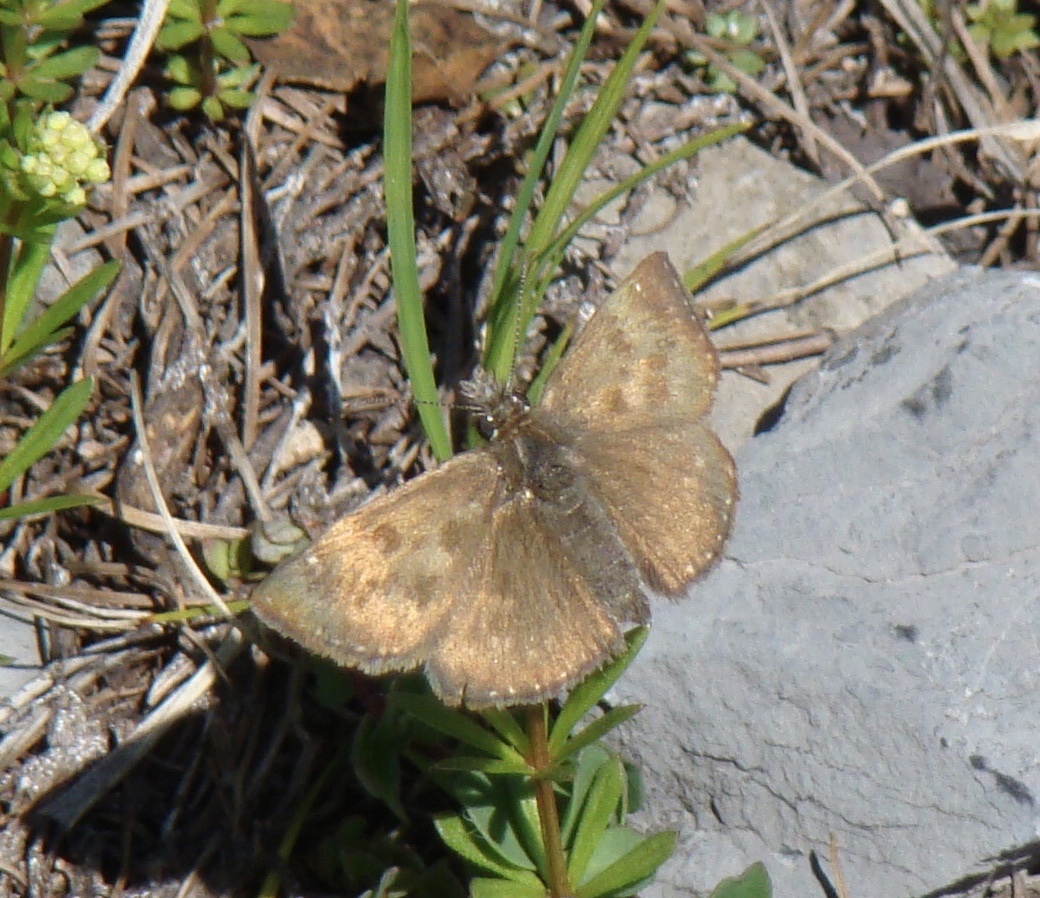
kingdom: Animalia
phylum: Arthropoda
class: Insecta
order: Lepidoptera
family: Hesperiidae
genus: Erynnis
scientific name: Erynnis tages
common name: Dingy skipper
